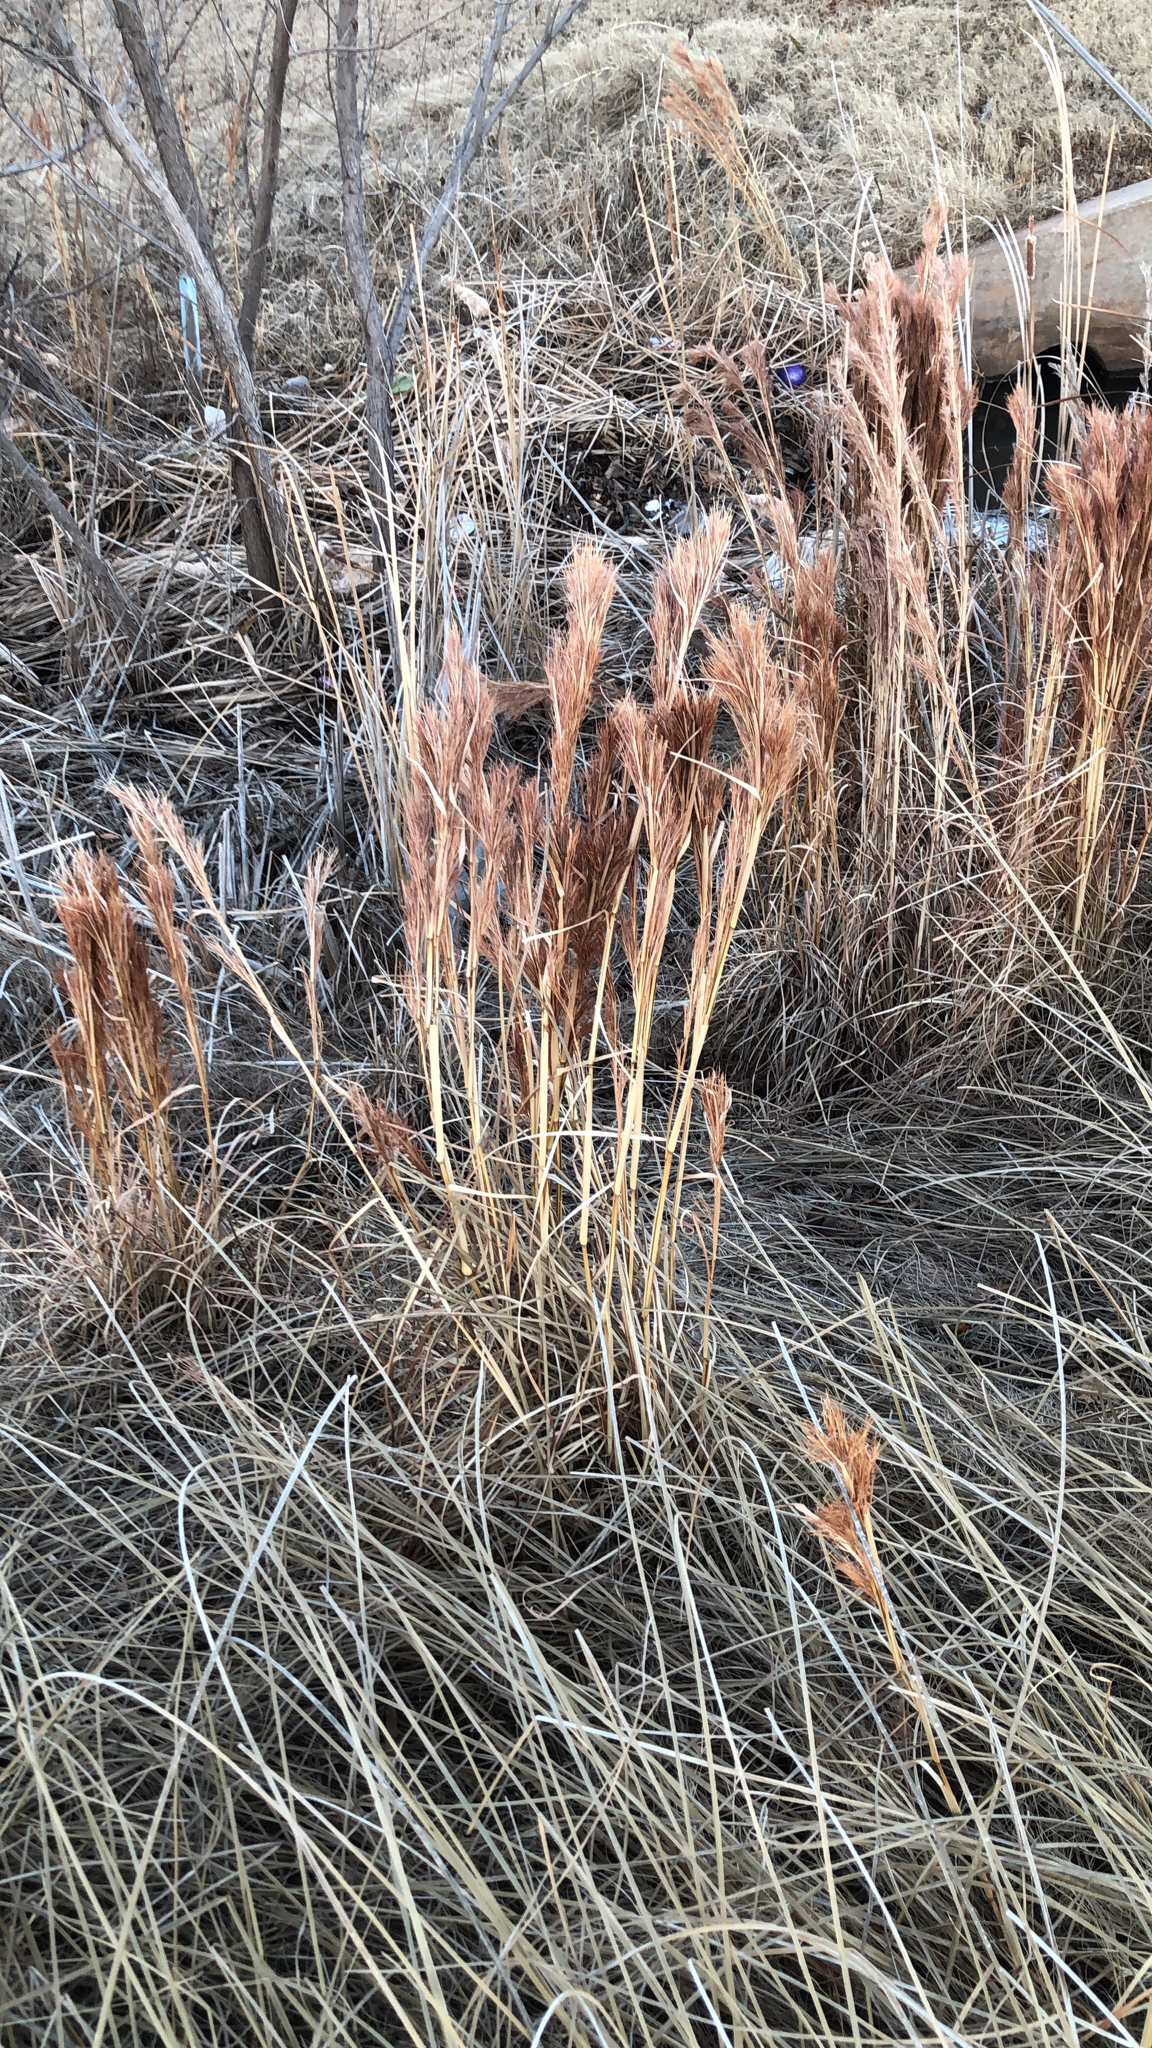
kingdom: Plantae
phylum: Tracheophyta
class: Liliopsida
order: Poales
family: Poaceae
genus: Andropogon
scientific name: Andropogon tenuispatheus
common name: Bushy bluestem
